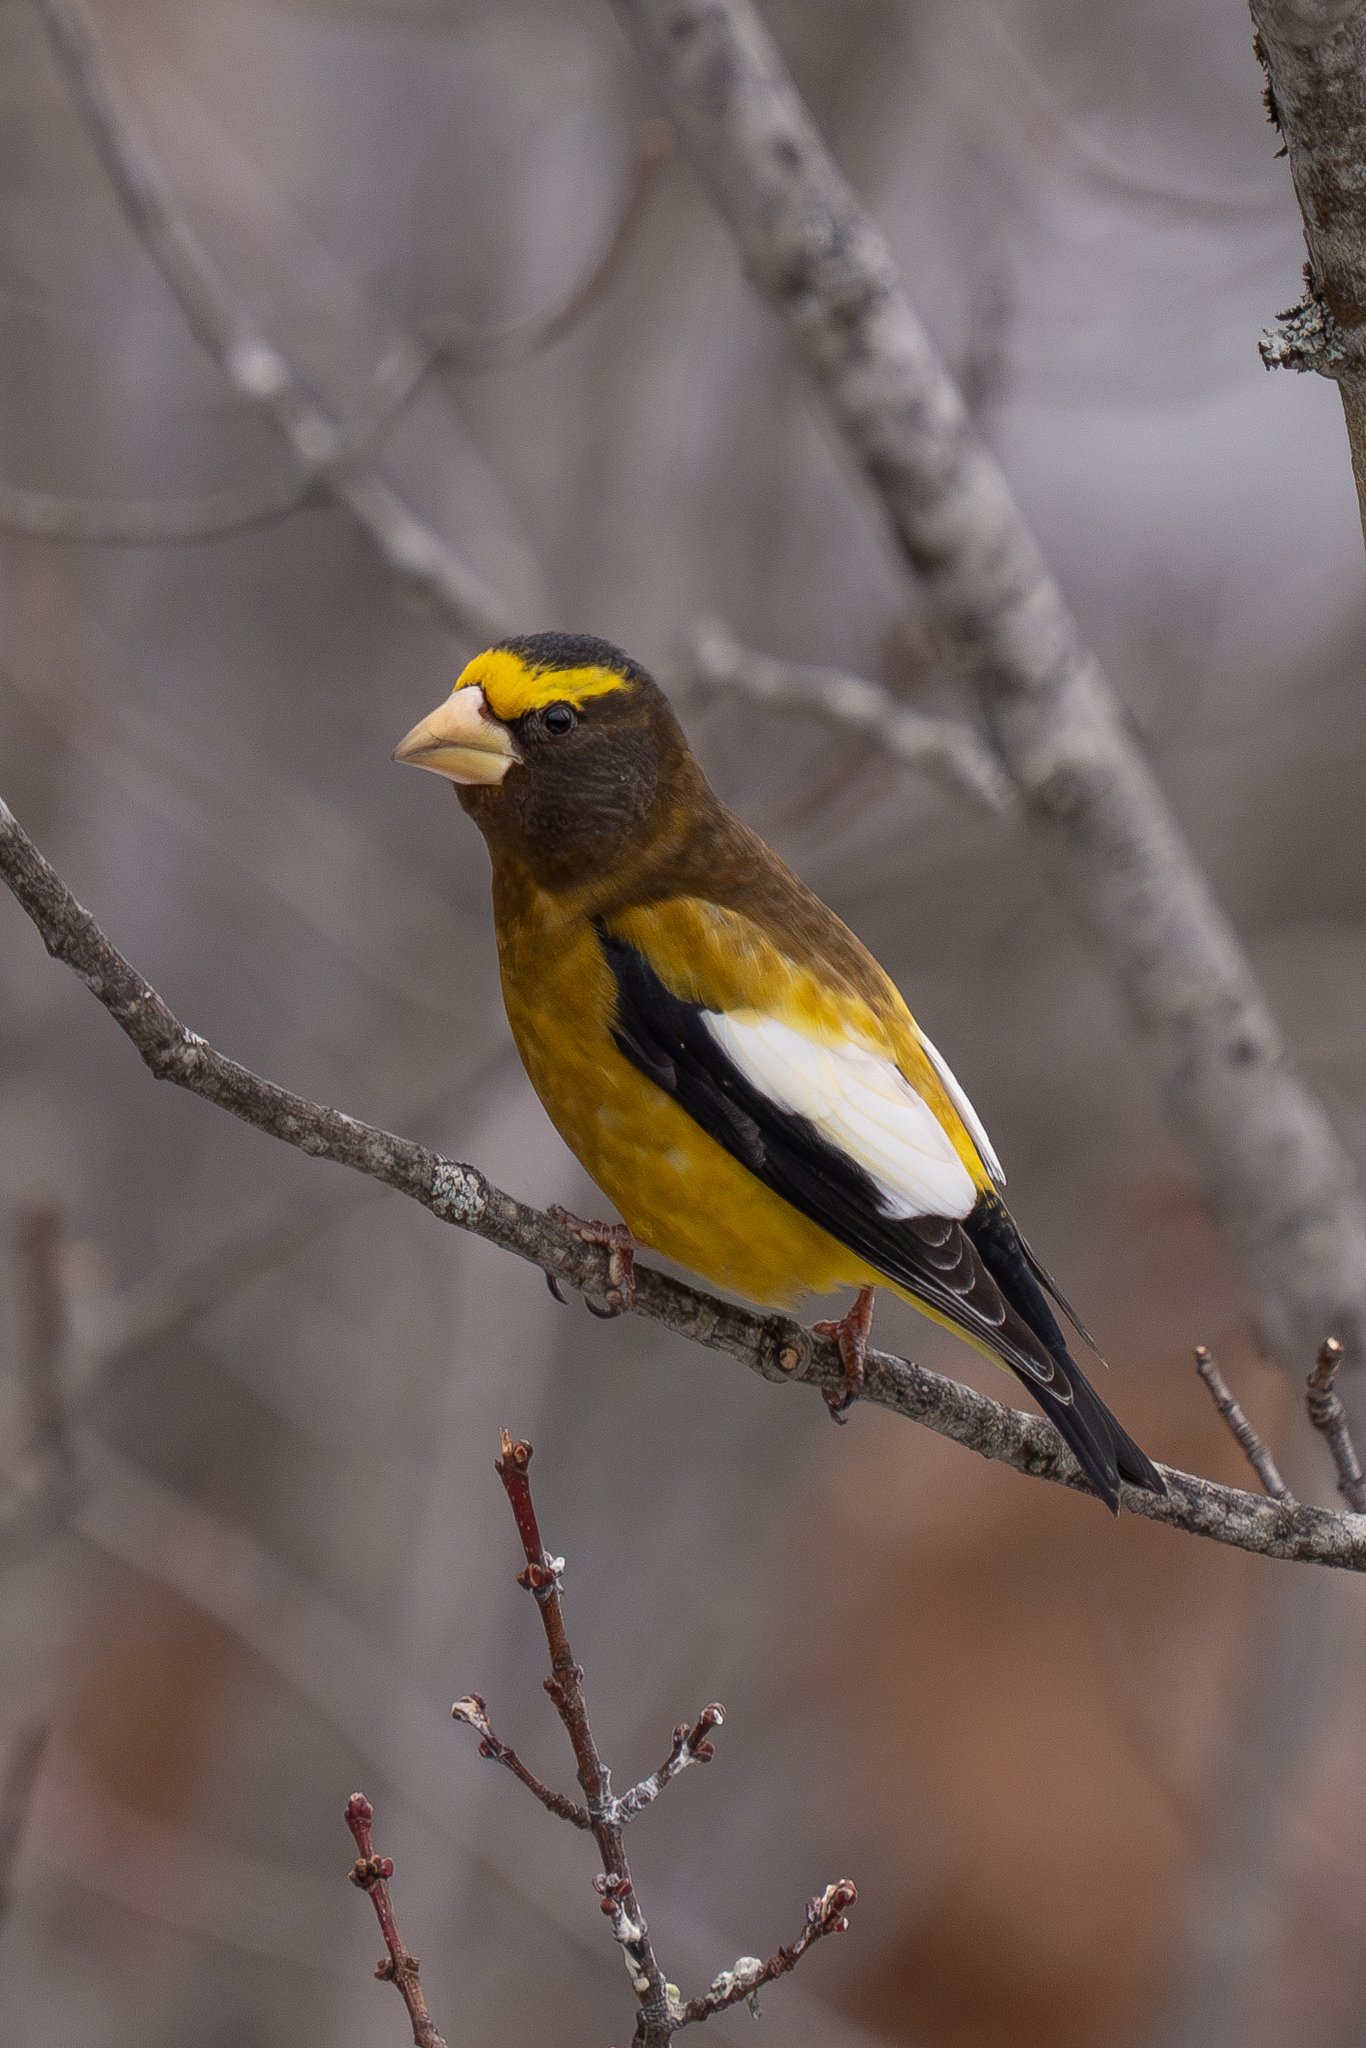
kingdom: Animalia
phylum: Chordata
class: Aves
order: Passeriformes
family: Fringillidae
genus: Hesperiphona
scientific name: Hesperiphona vespertina
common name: Evening grosbeak
